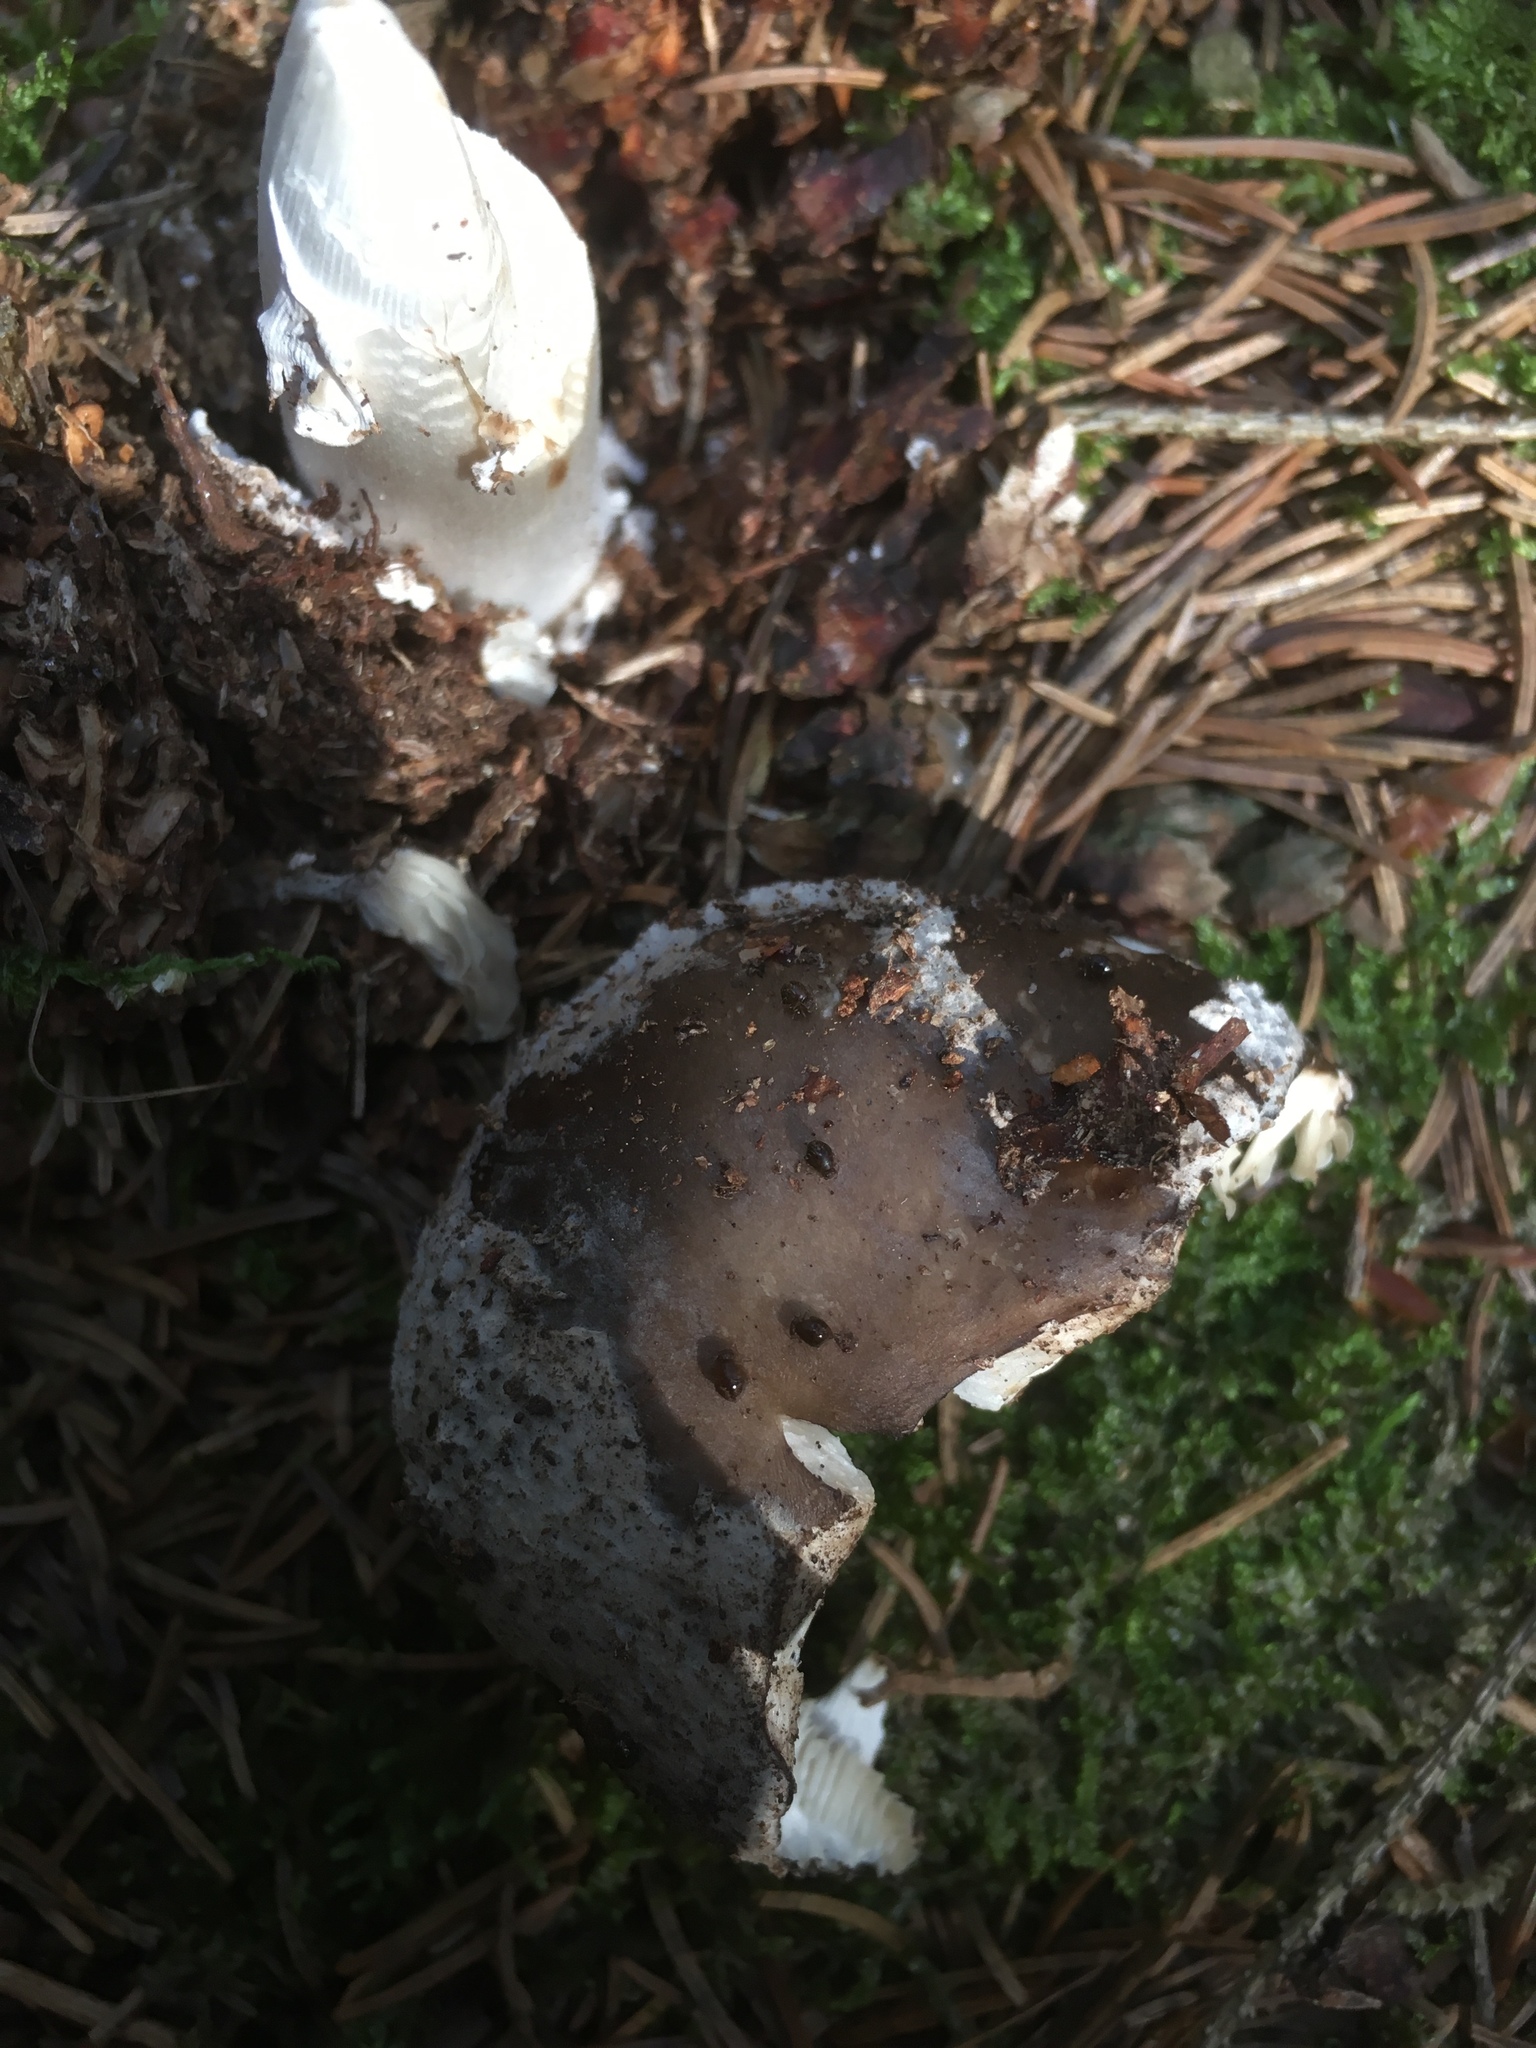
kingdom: Fungi
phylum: Basidiomycota
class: Agaricomycetes
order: Agaricales
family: Amanitaceae
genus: Amanita
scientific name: Amanita excelsa
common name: European false blusher
